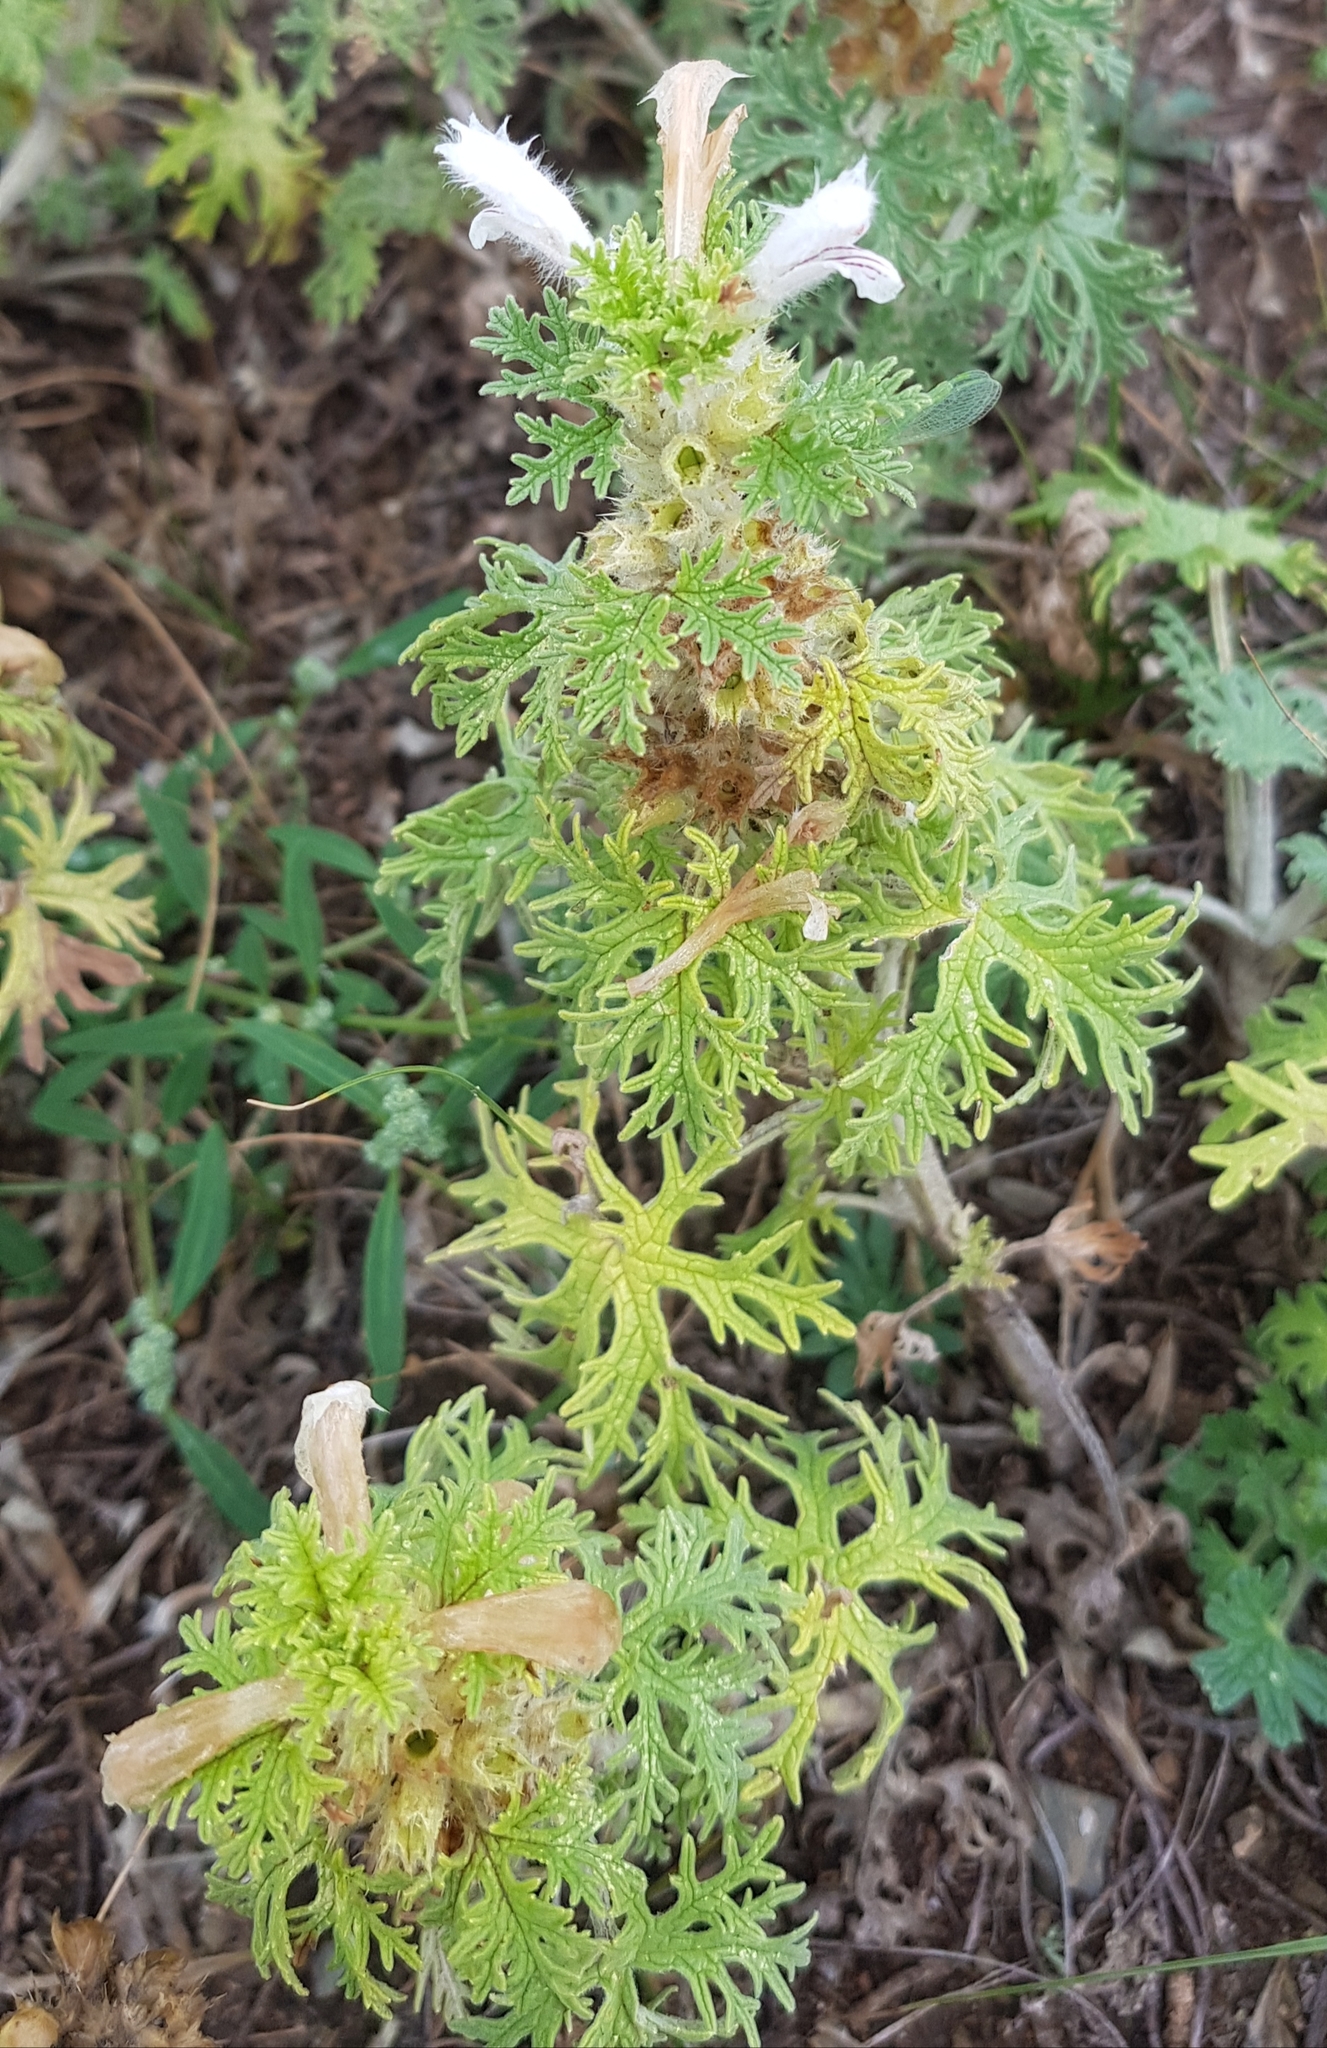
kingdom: Plantae
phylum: Tracheophyta
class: Magnoliopsida
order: Lamiales
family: Lamiaceae
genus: Panzerina
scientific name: Panzerina lanata
